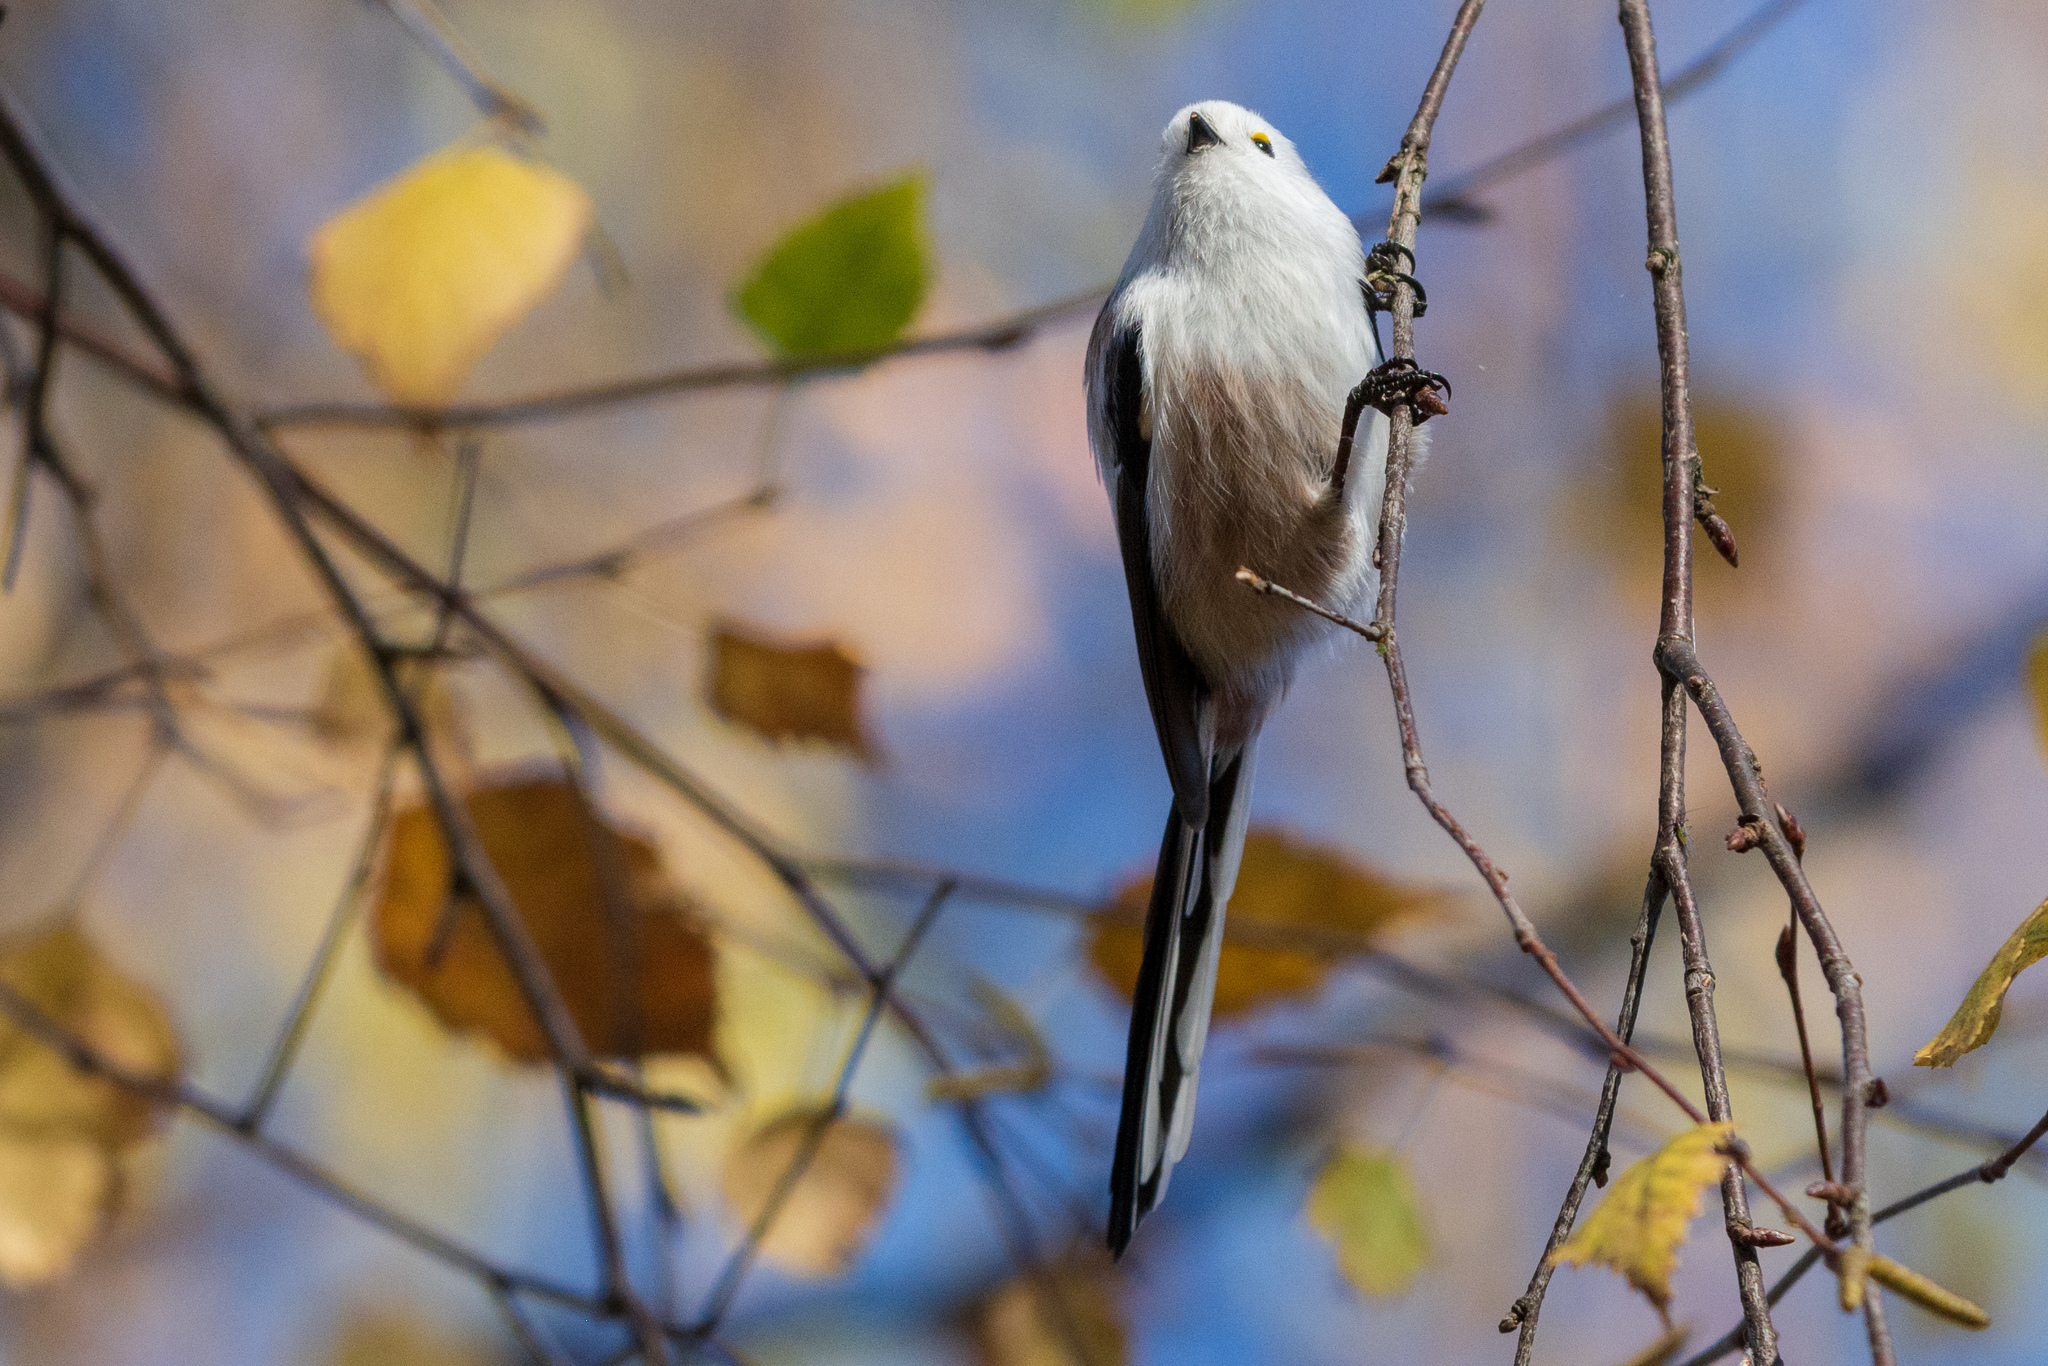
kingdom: Animalia
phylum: Chordata
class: Aves
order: Passeriformes
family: Aegithalidae
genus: Aegithalos
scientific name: Aegithalos caudatus
